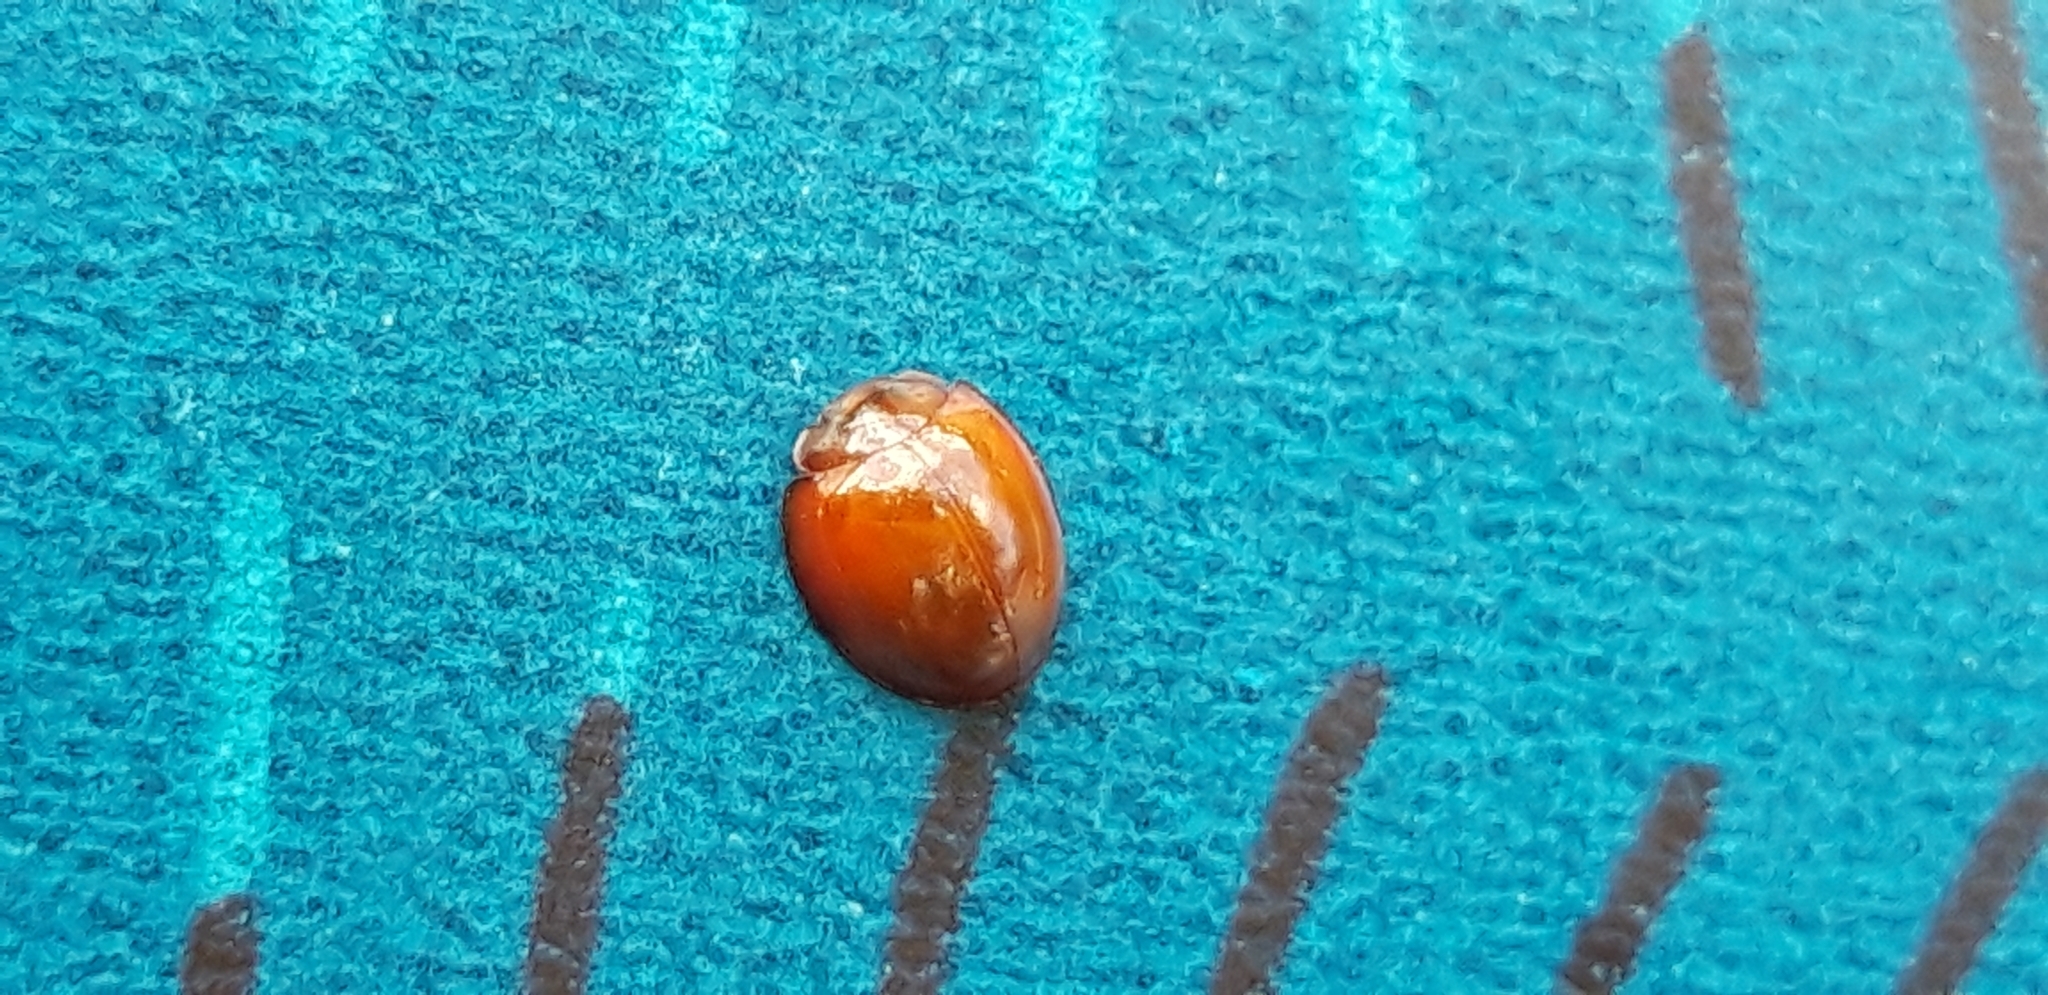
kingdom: Animalia
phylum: Arthropoda
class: Insecta
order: Coleoptera
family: Coccinellidae
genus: Brumus
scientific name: Brumus quadripustulatus
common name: Ladybird beetle
